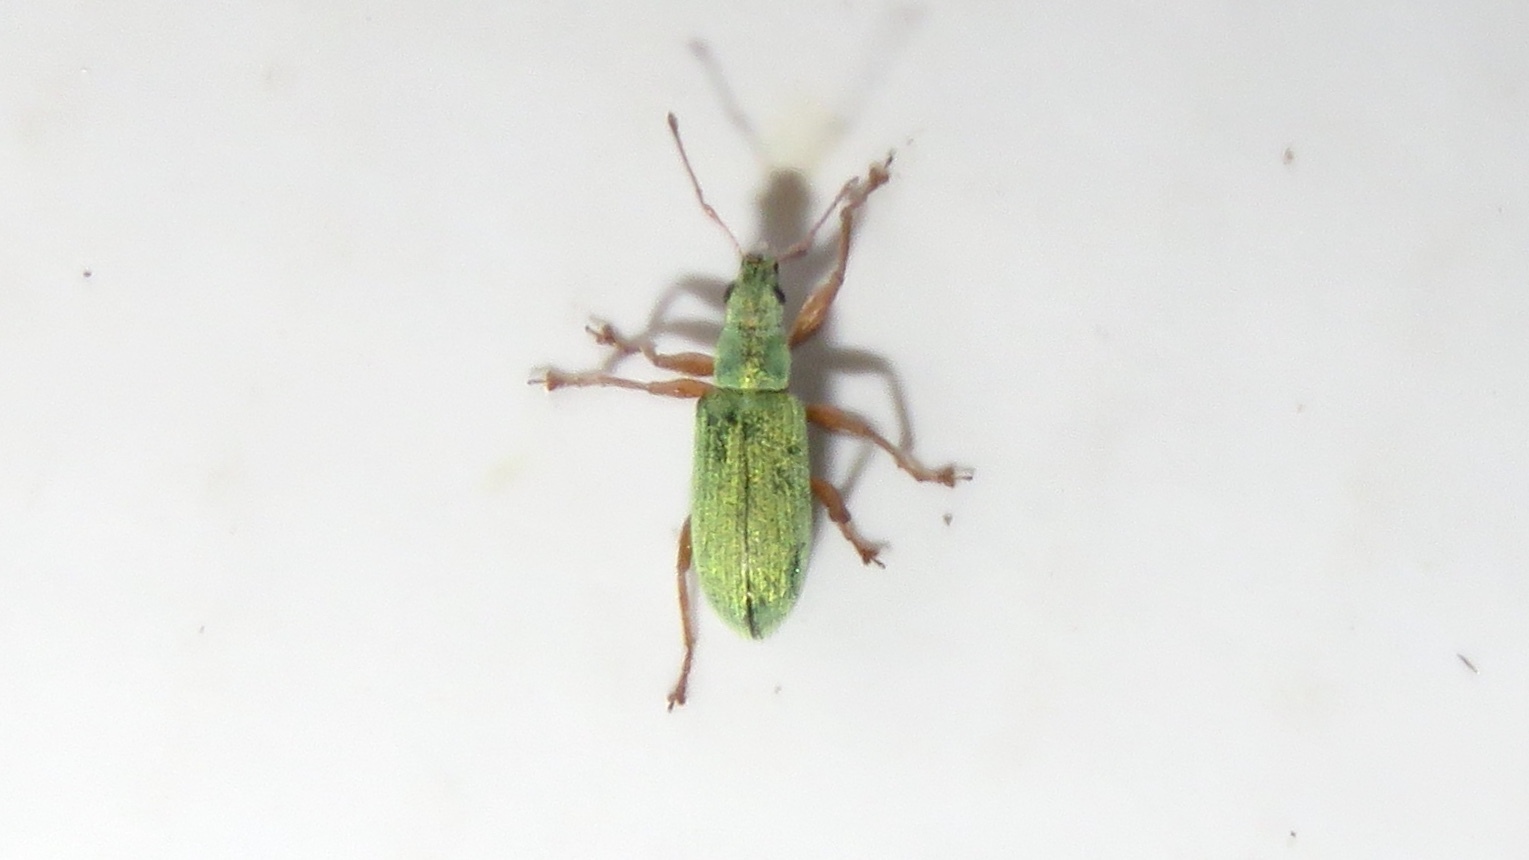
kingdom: Animalia
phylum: Arthropoda
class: Insecta
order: Coleoptera
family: Curculionidae
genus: Polydrusus
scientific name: Polydrusus impressifrons
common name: Weevil
